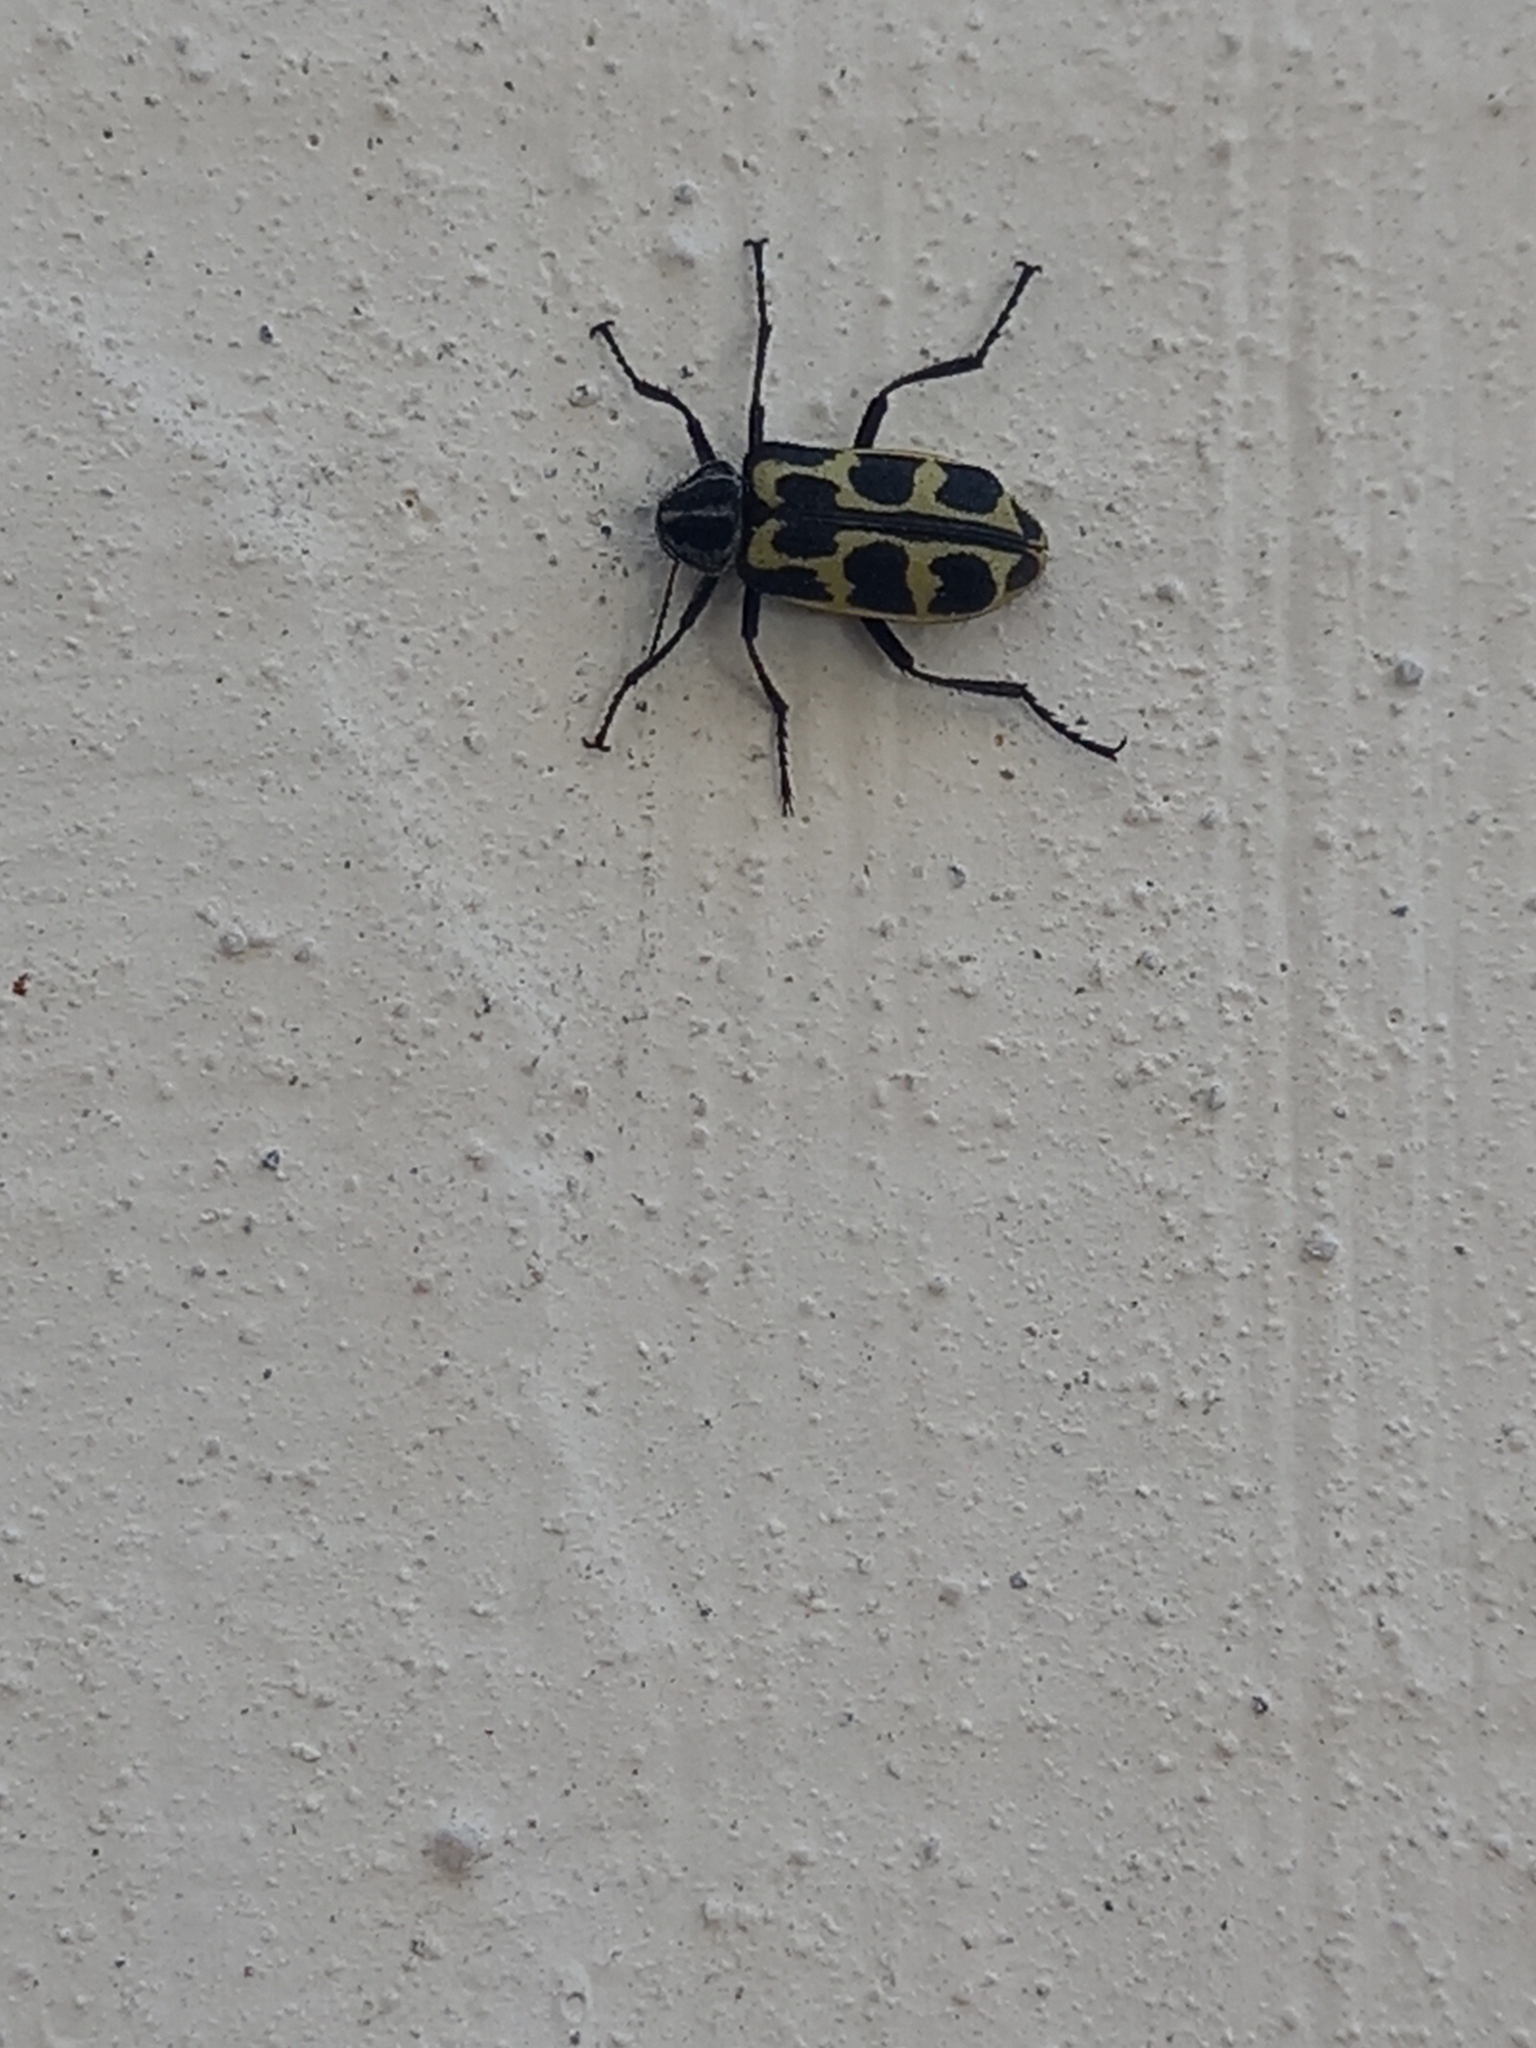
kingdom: Animalia
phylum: Arthropoda
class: Insecta
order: Coleoptera
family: Melyridae
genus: Astylus
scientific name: Astylus atromaculatus
